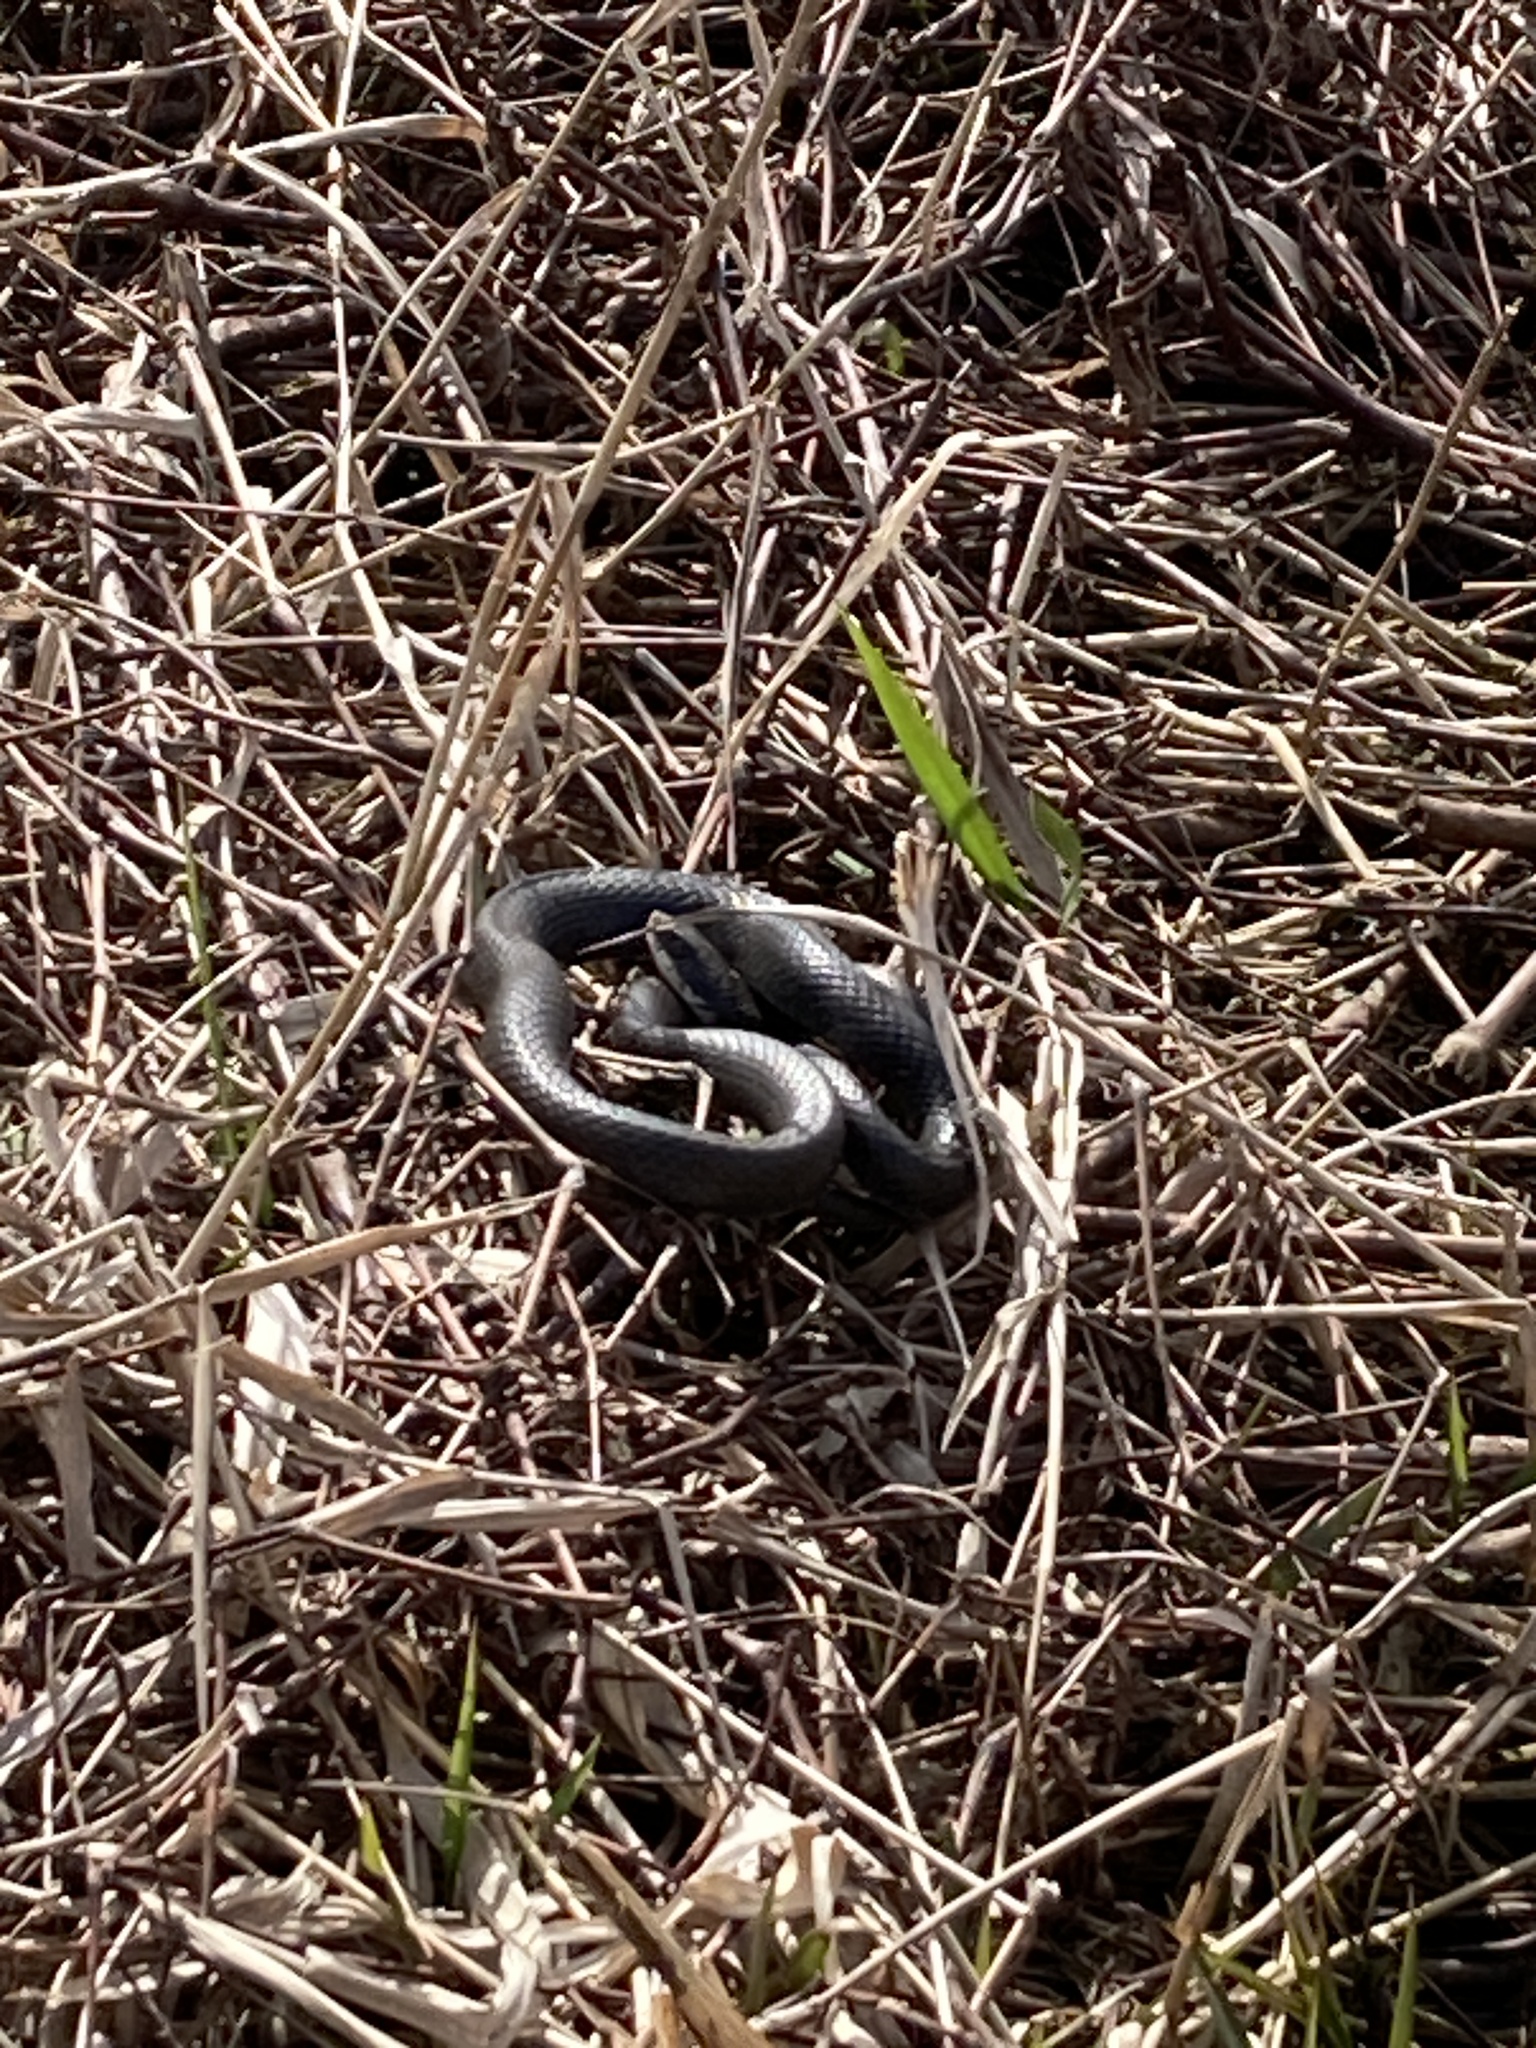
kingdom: Animalia
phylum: Chordata
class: Squamata
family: Colubridae
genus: Coluber
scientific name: Coluber constrictor
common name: Eastern racer
